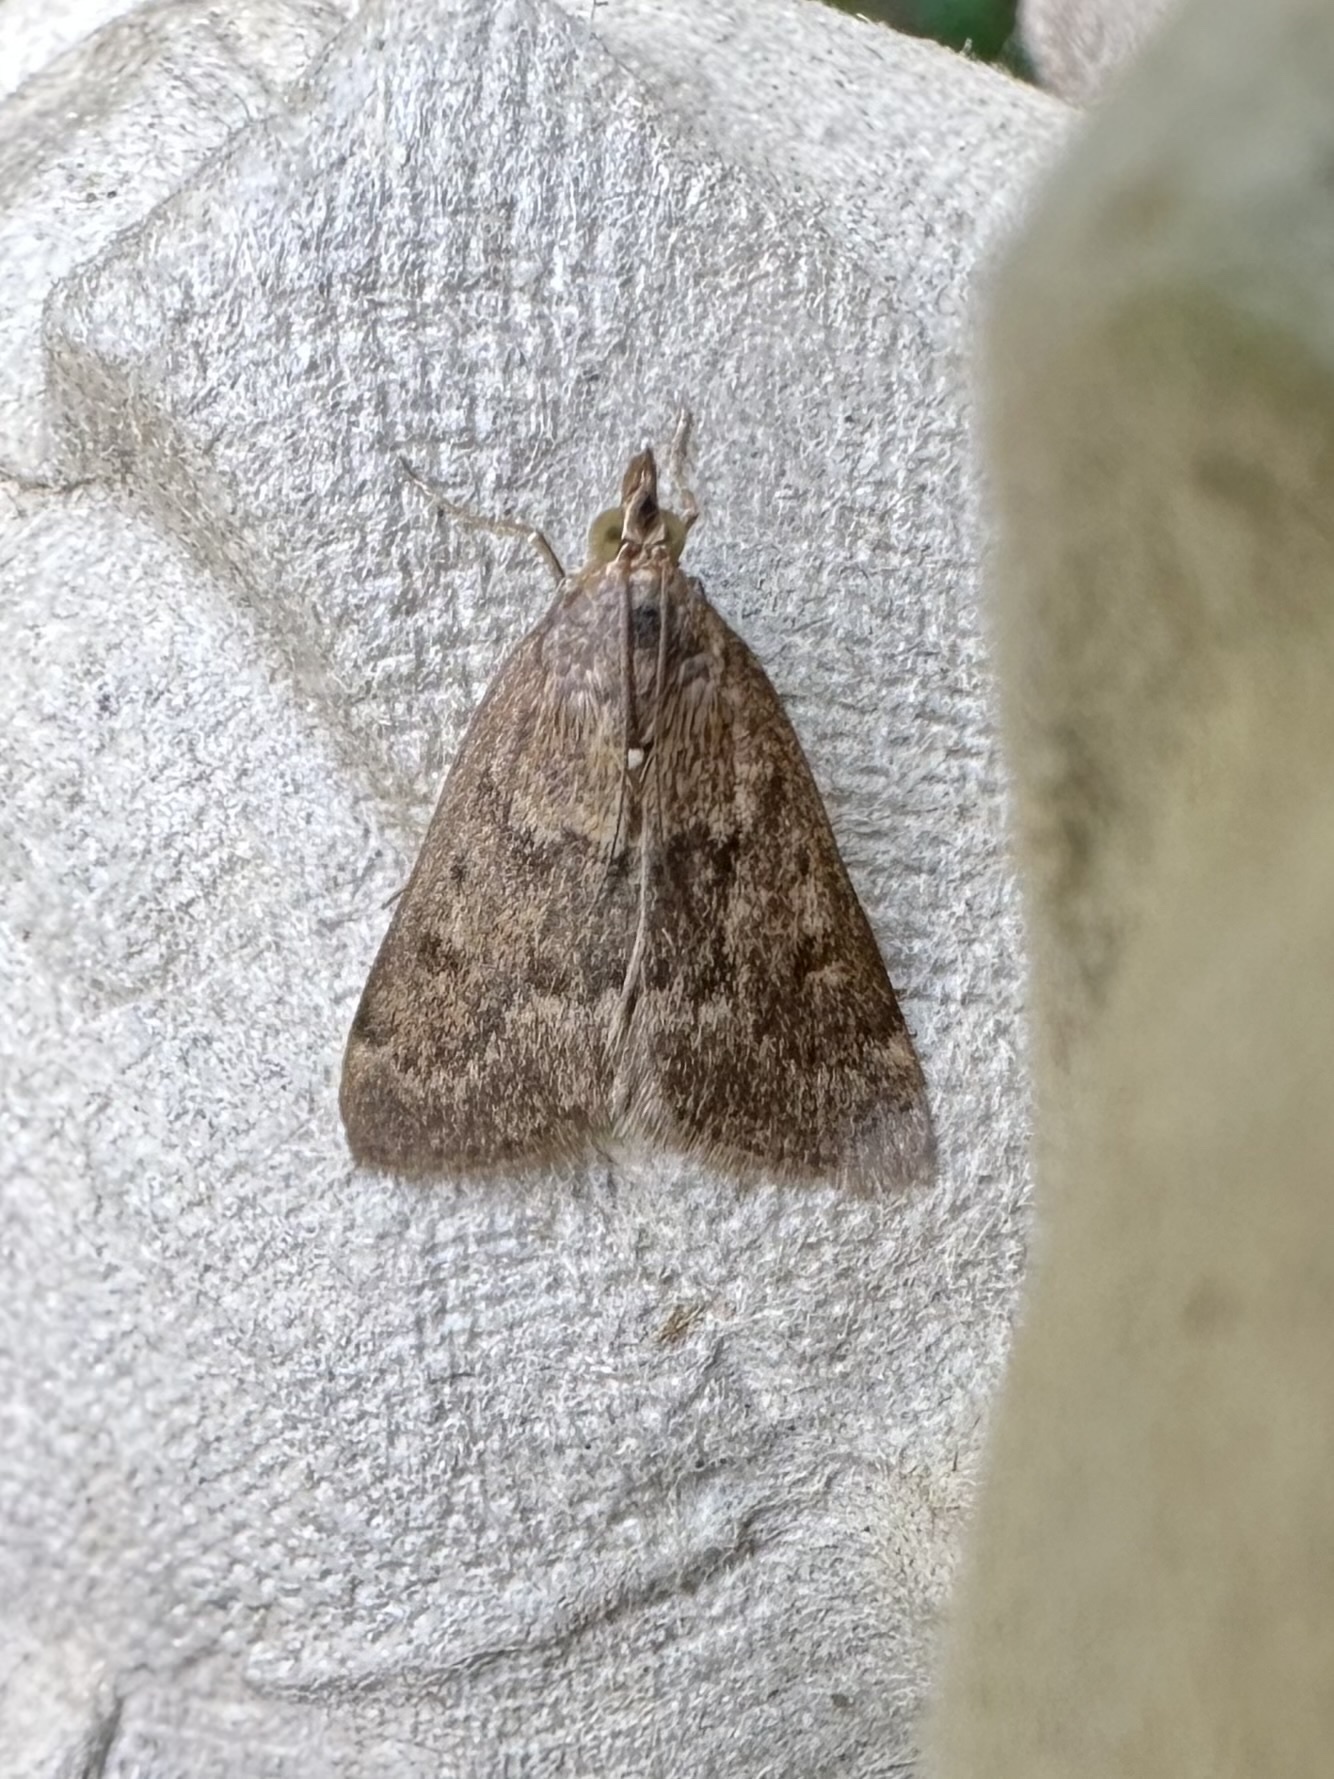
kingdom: Animalia
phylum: Arthropoda
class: Insecta
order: Lepidoptera
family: Crambidae
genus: Achyra
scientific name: Achyra rantalis
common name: Garden webworm
